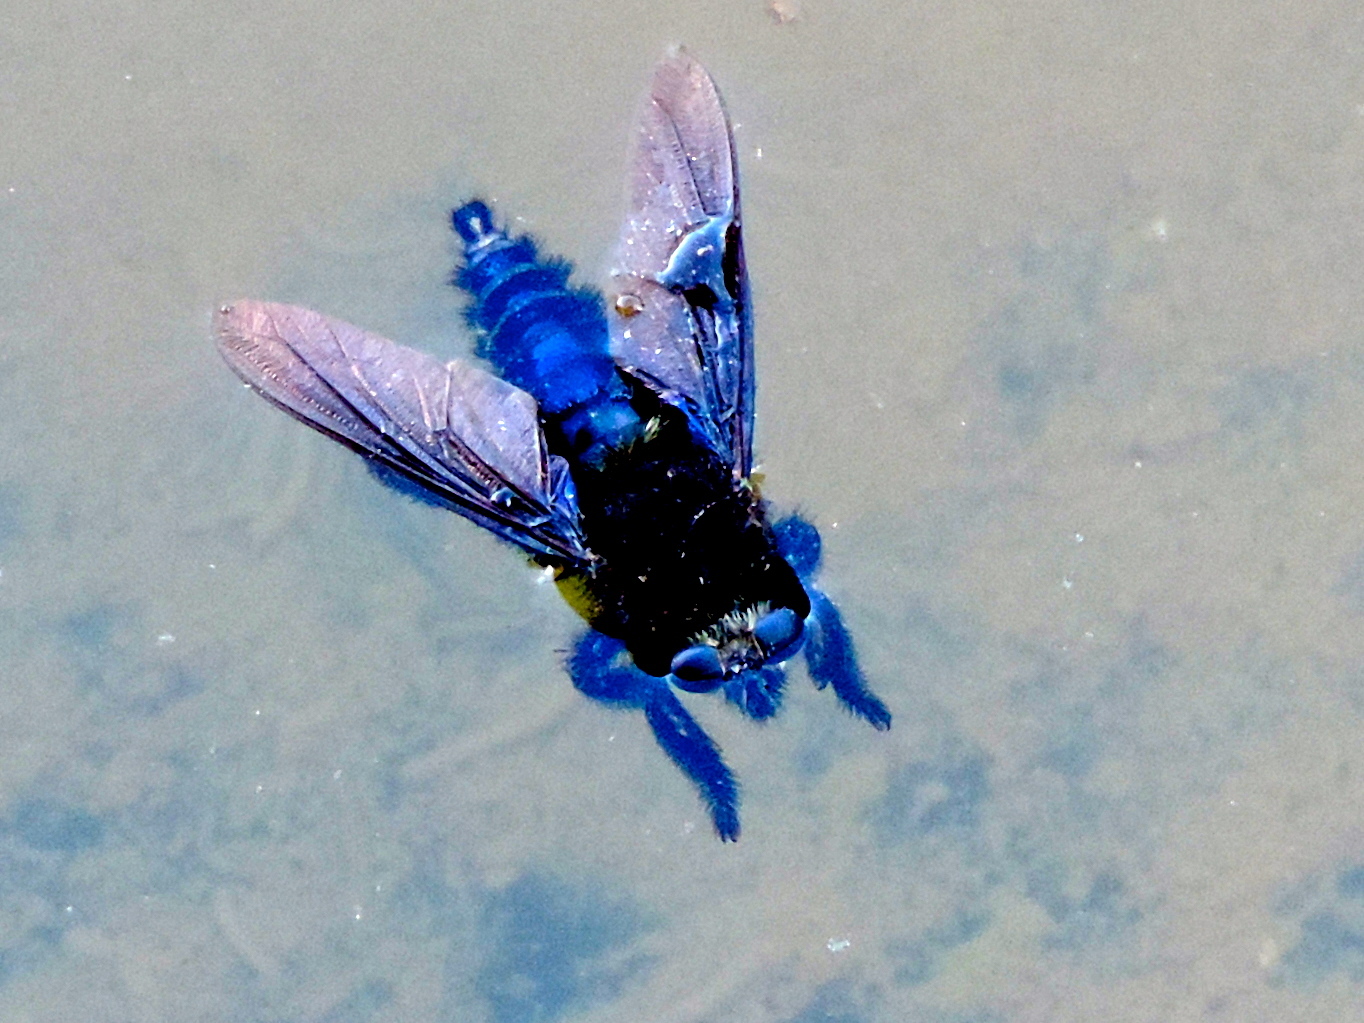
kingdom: Animalia
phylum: Arthropoda
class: Insecta
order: Diptera
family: Asilidae
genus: Mallophora
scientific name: Mallophora
